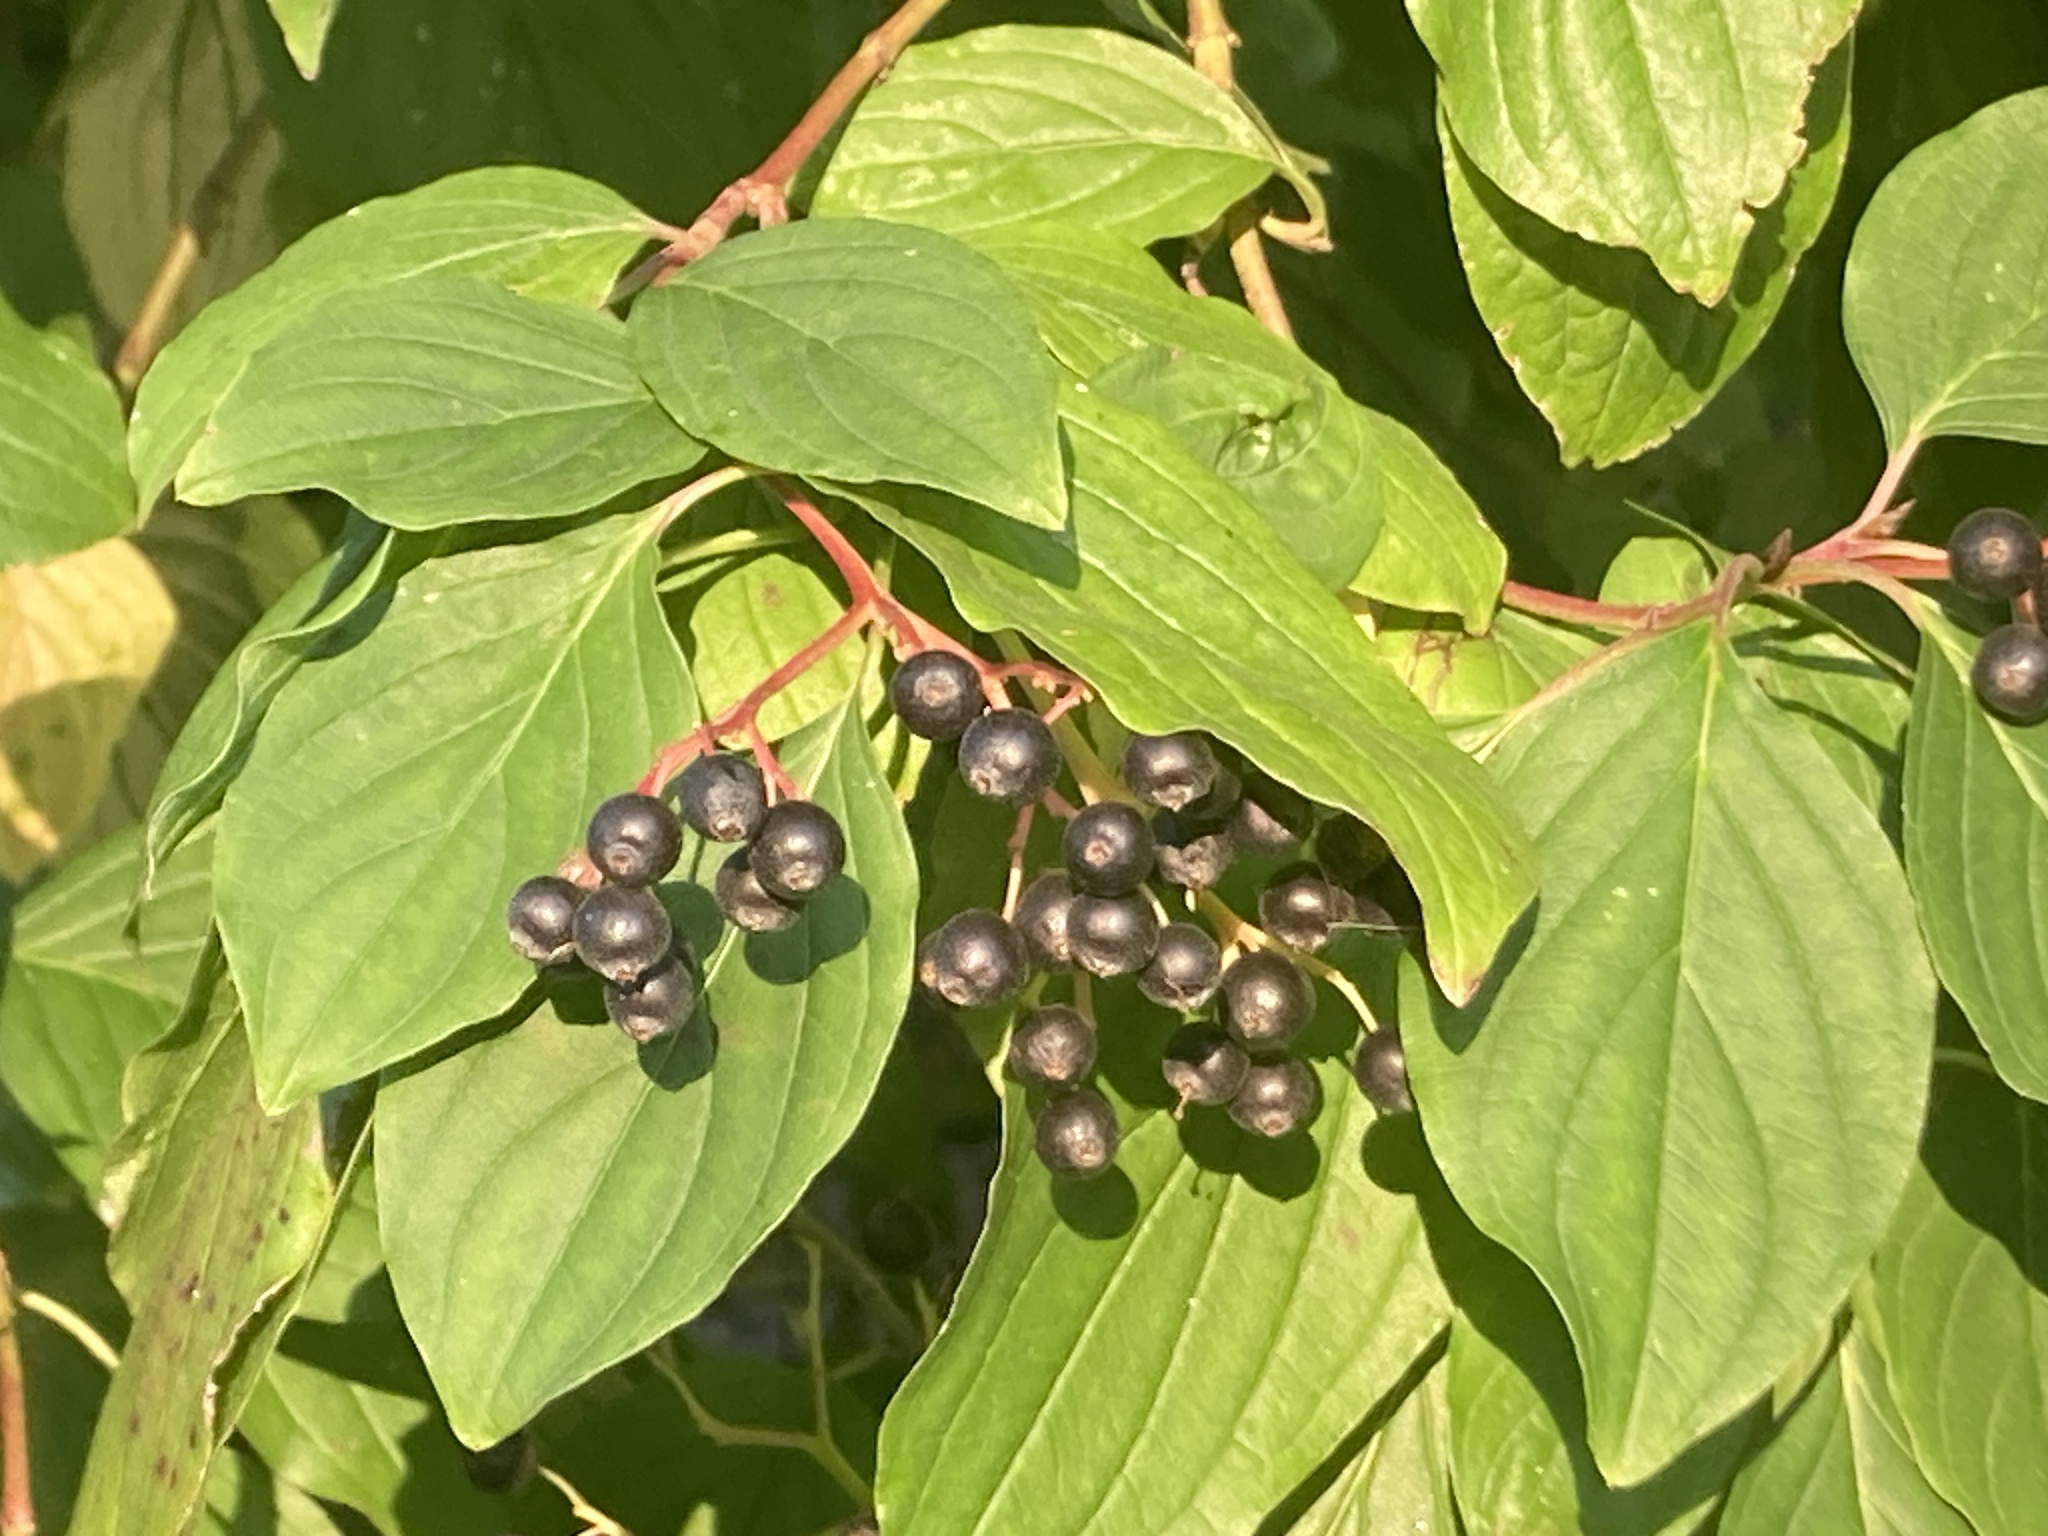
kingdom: Plantae
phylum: Tracheophyta
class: Magnoliopsida
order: Cornales
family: Cornaceae
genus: Cornus
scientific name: Cornus sanguinea
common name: Dogwood
